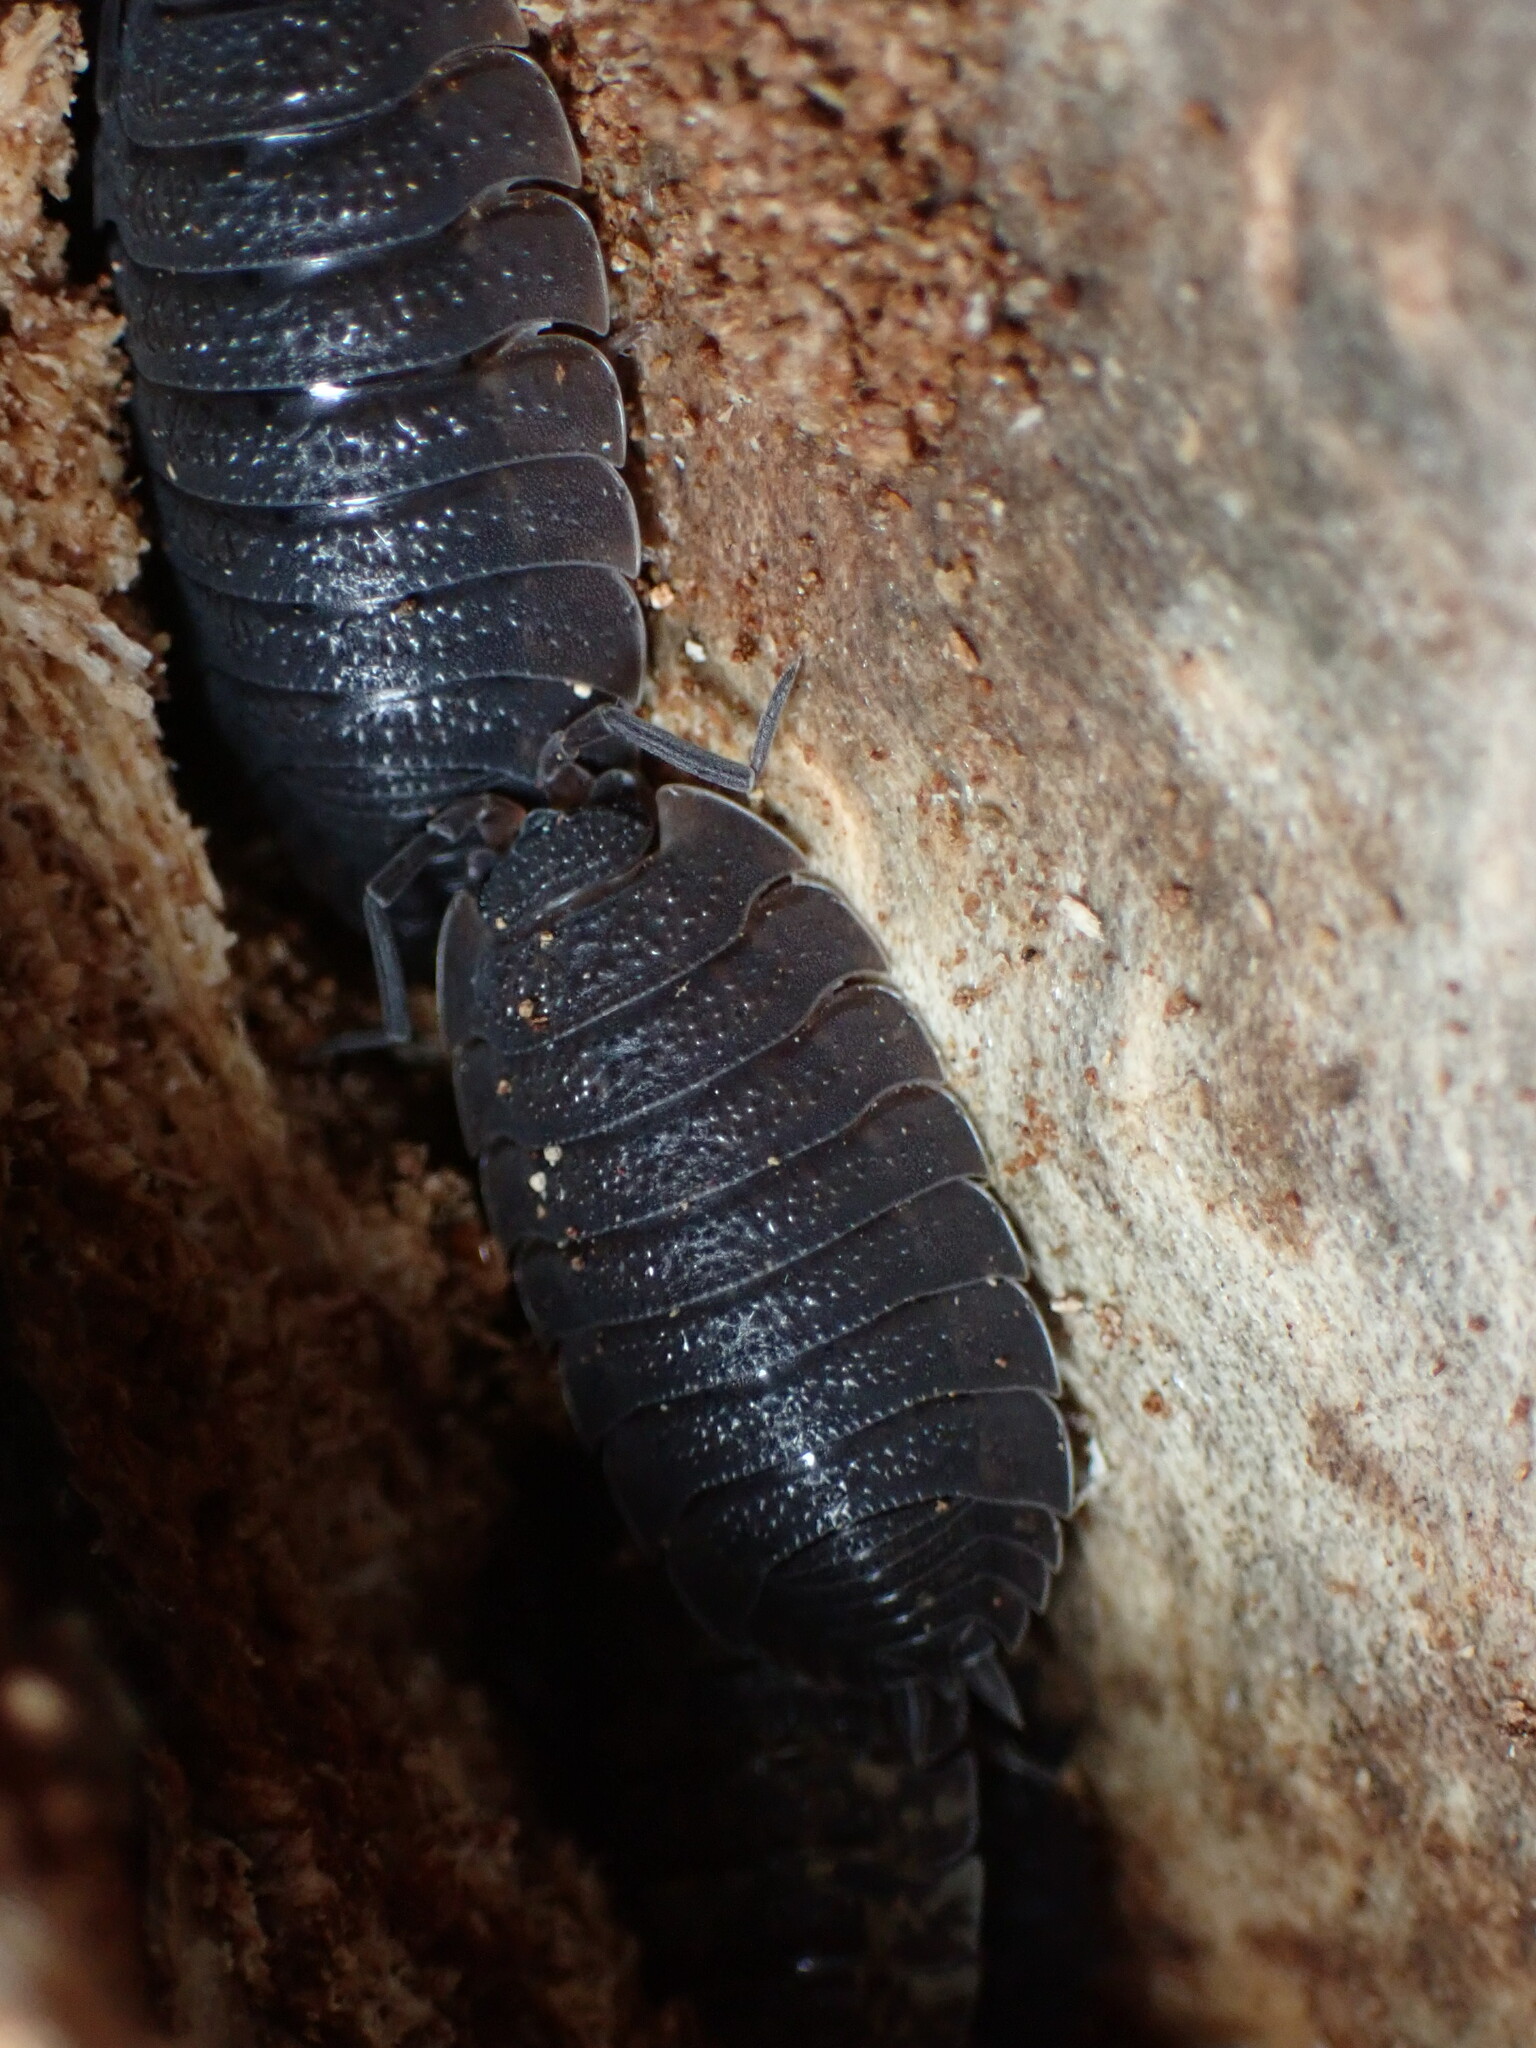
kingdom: Animalia
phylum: Arthropoda
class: Malacostraca
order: Isopoda
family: Porcellionidae
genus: Porcellio
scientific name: Porcellio scaber
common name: Common rough woodlouse
